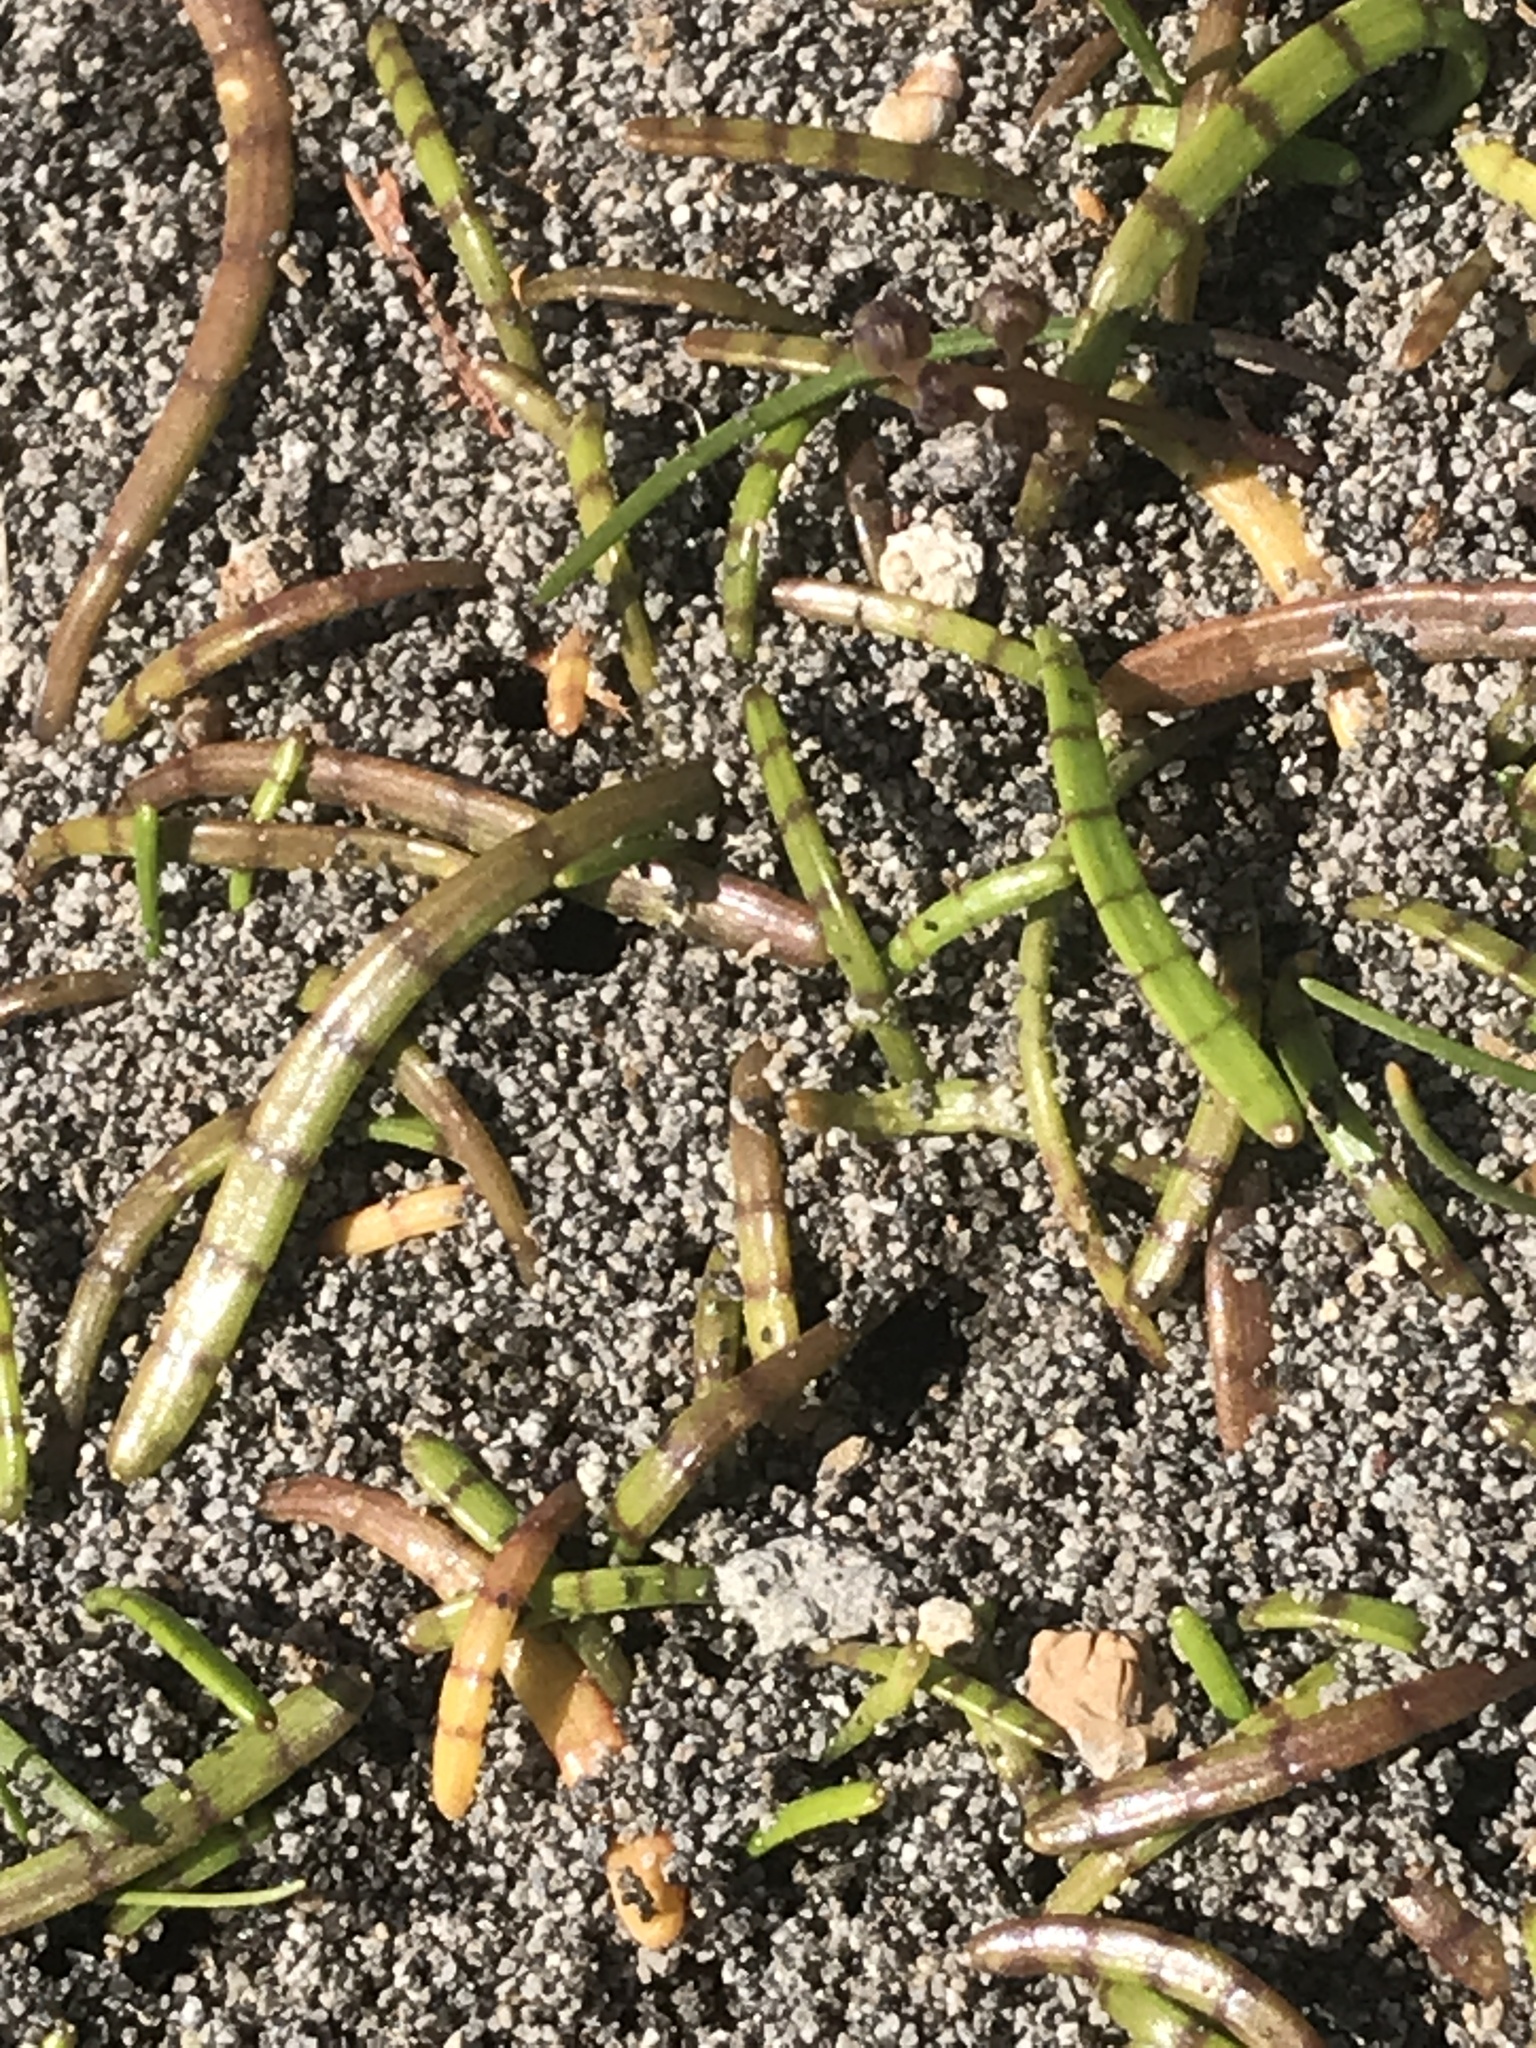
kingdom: Plantae
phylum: Tracheophyta
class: Magnoliopsida
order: Apiales
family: Apiaceae
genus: Lilaeopsis
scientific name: Lilaeopsis novae-zelandiae
